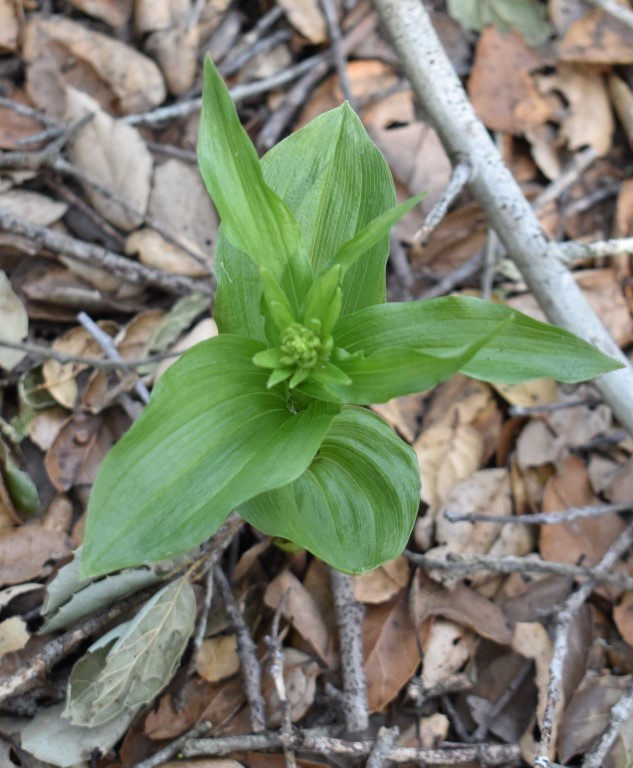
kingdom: Plantae
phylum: Tracheophyta
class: Liliopsida
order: Asparagales
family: Orchidaceae
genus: Epipactis
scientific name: Epipactis helleborine
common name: Broad-leaved helleborine
